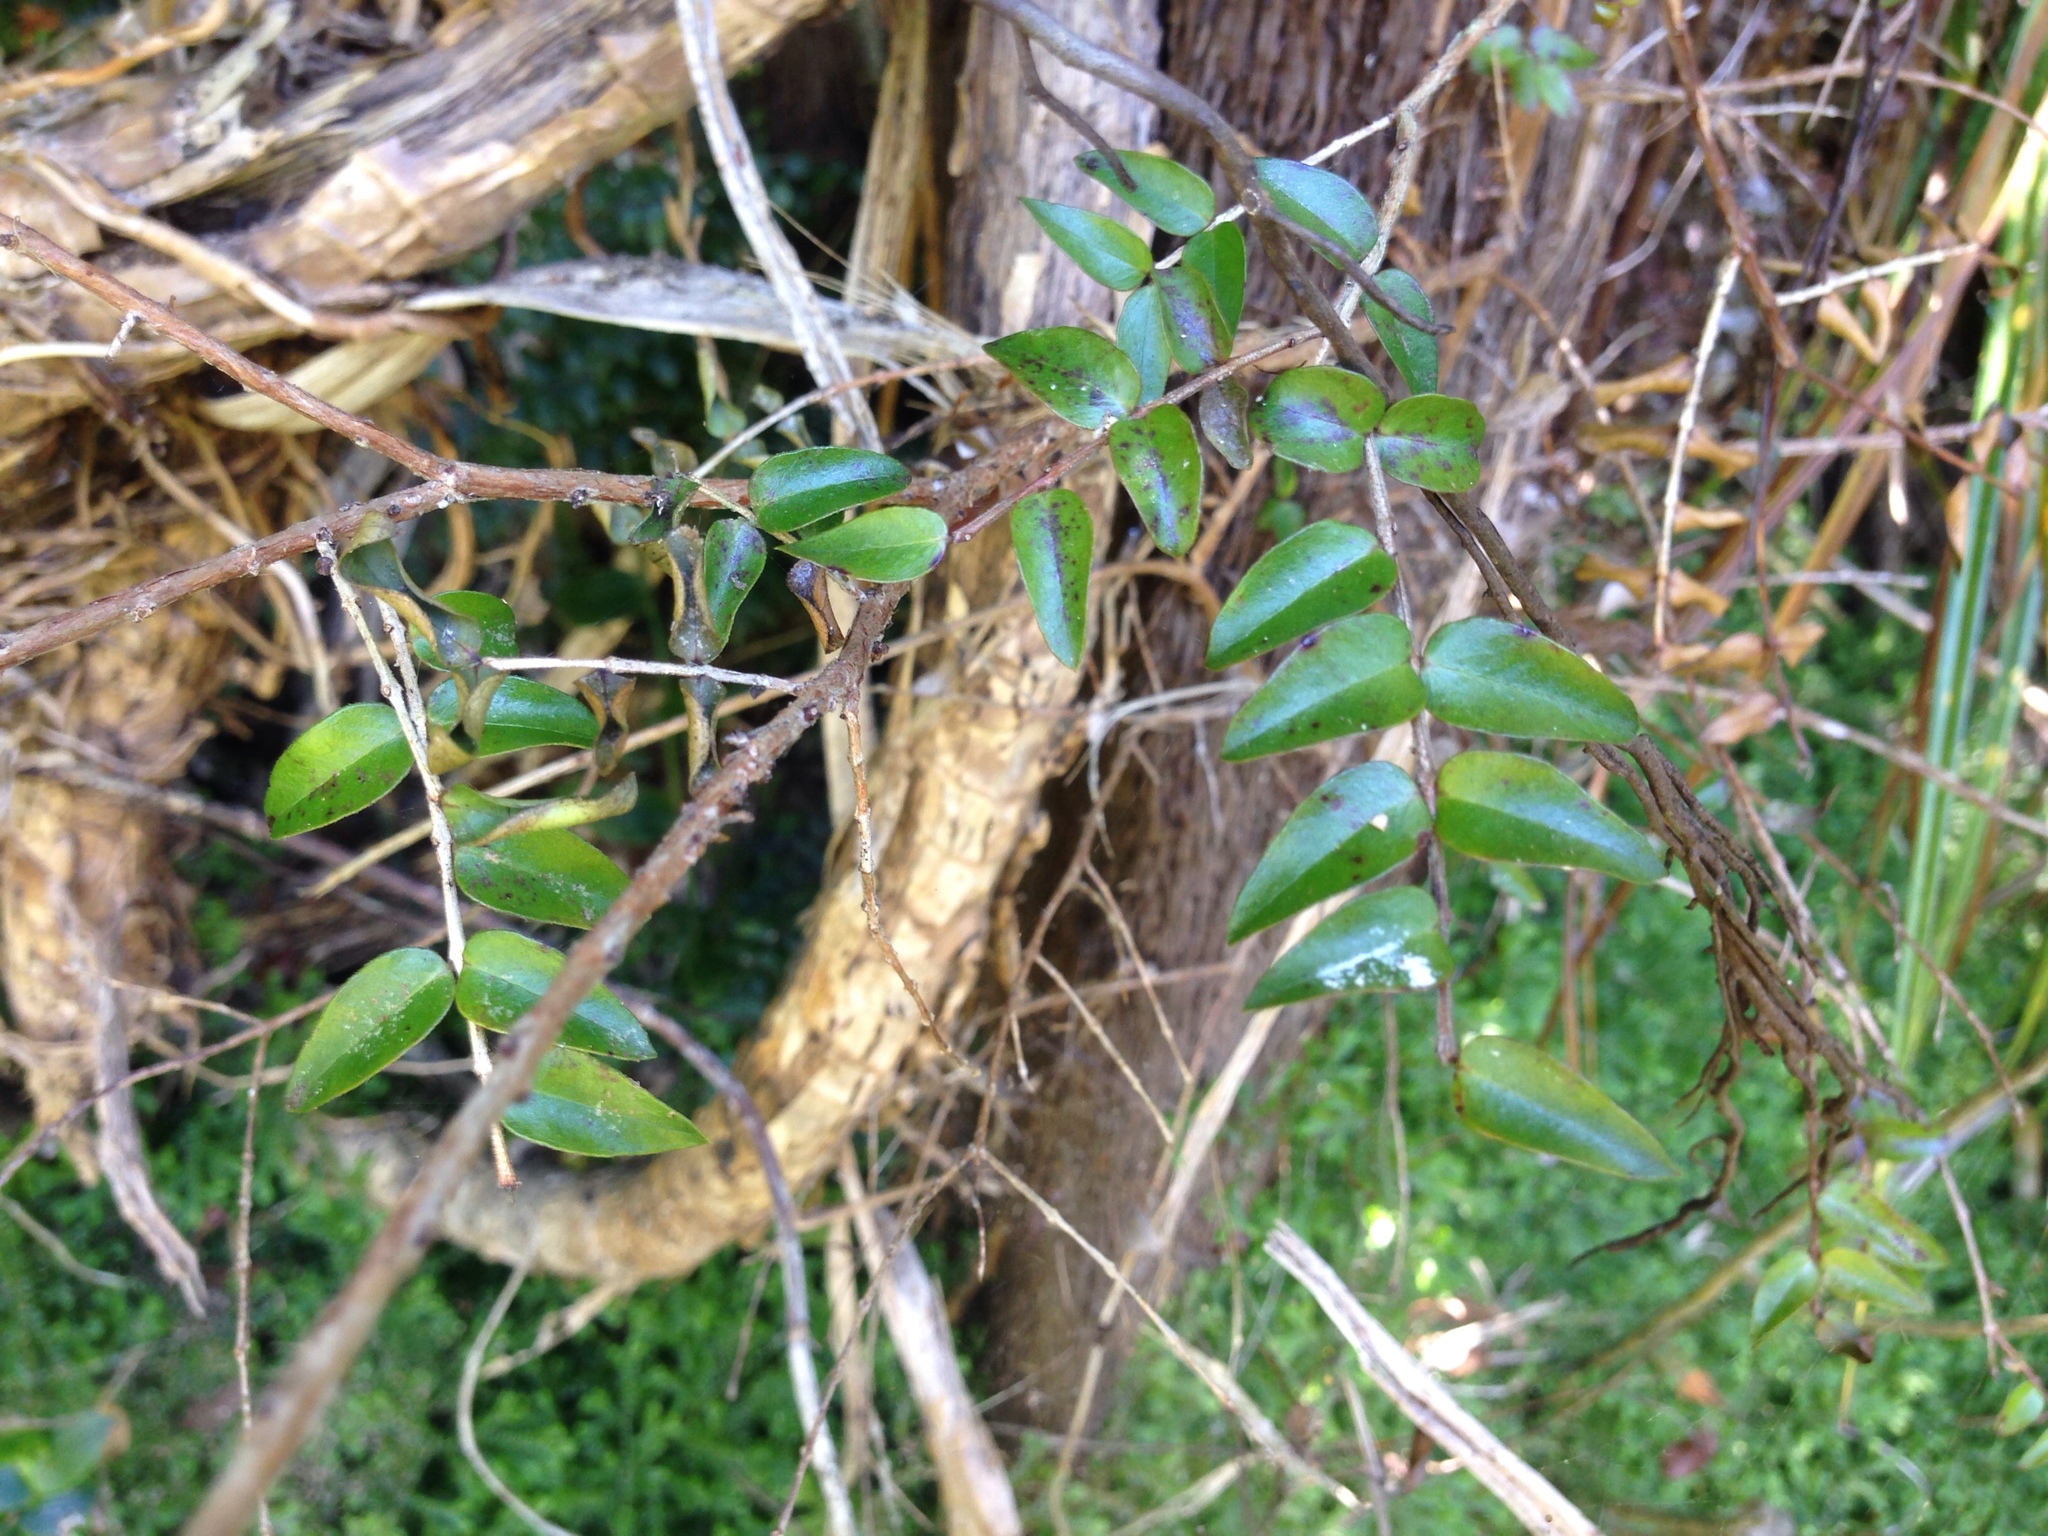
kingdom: Plantae
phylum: Tracheophyta
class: Magnoliopsida
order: Myrtales
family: Myrtaceae
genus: Metrosideros
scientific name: Metrosideros diffusa
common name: Small ratavine
